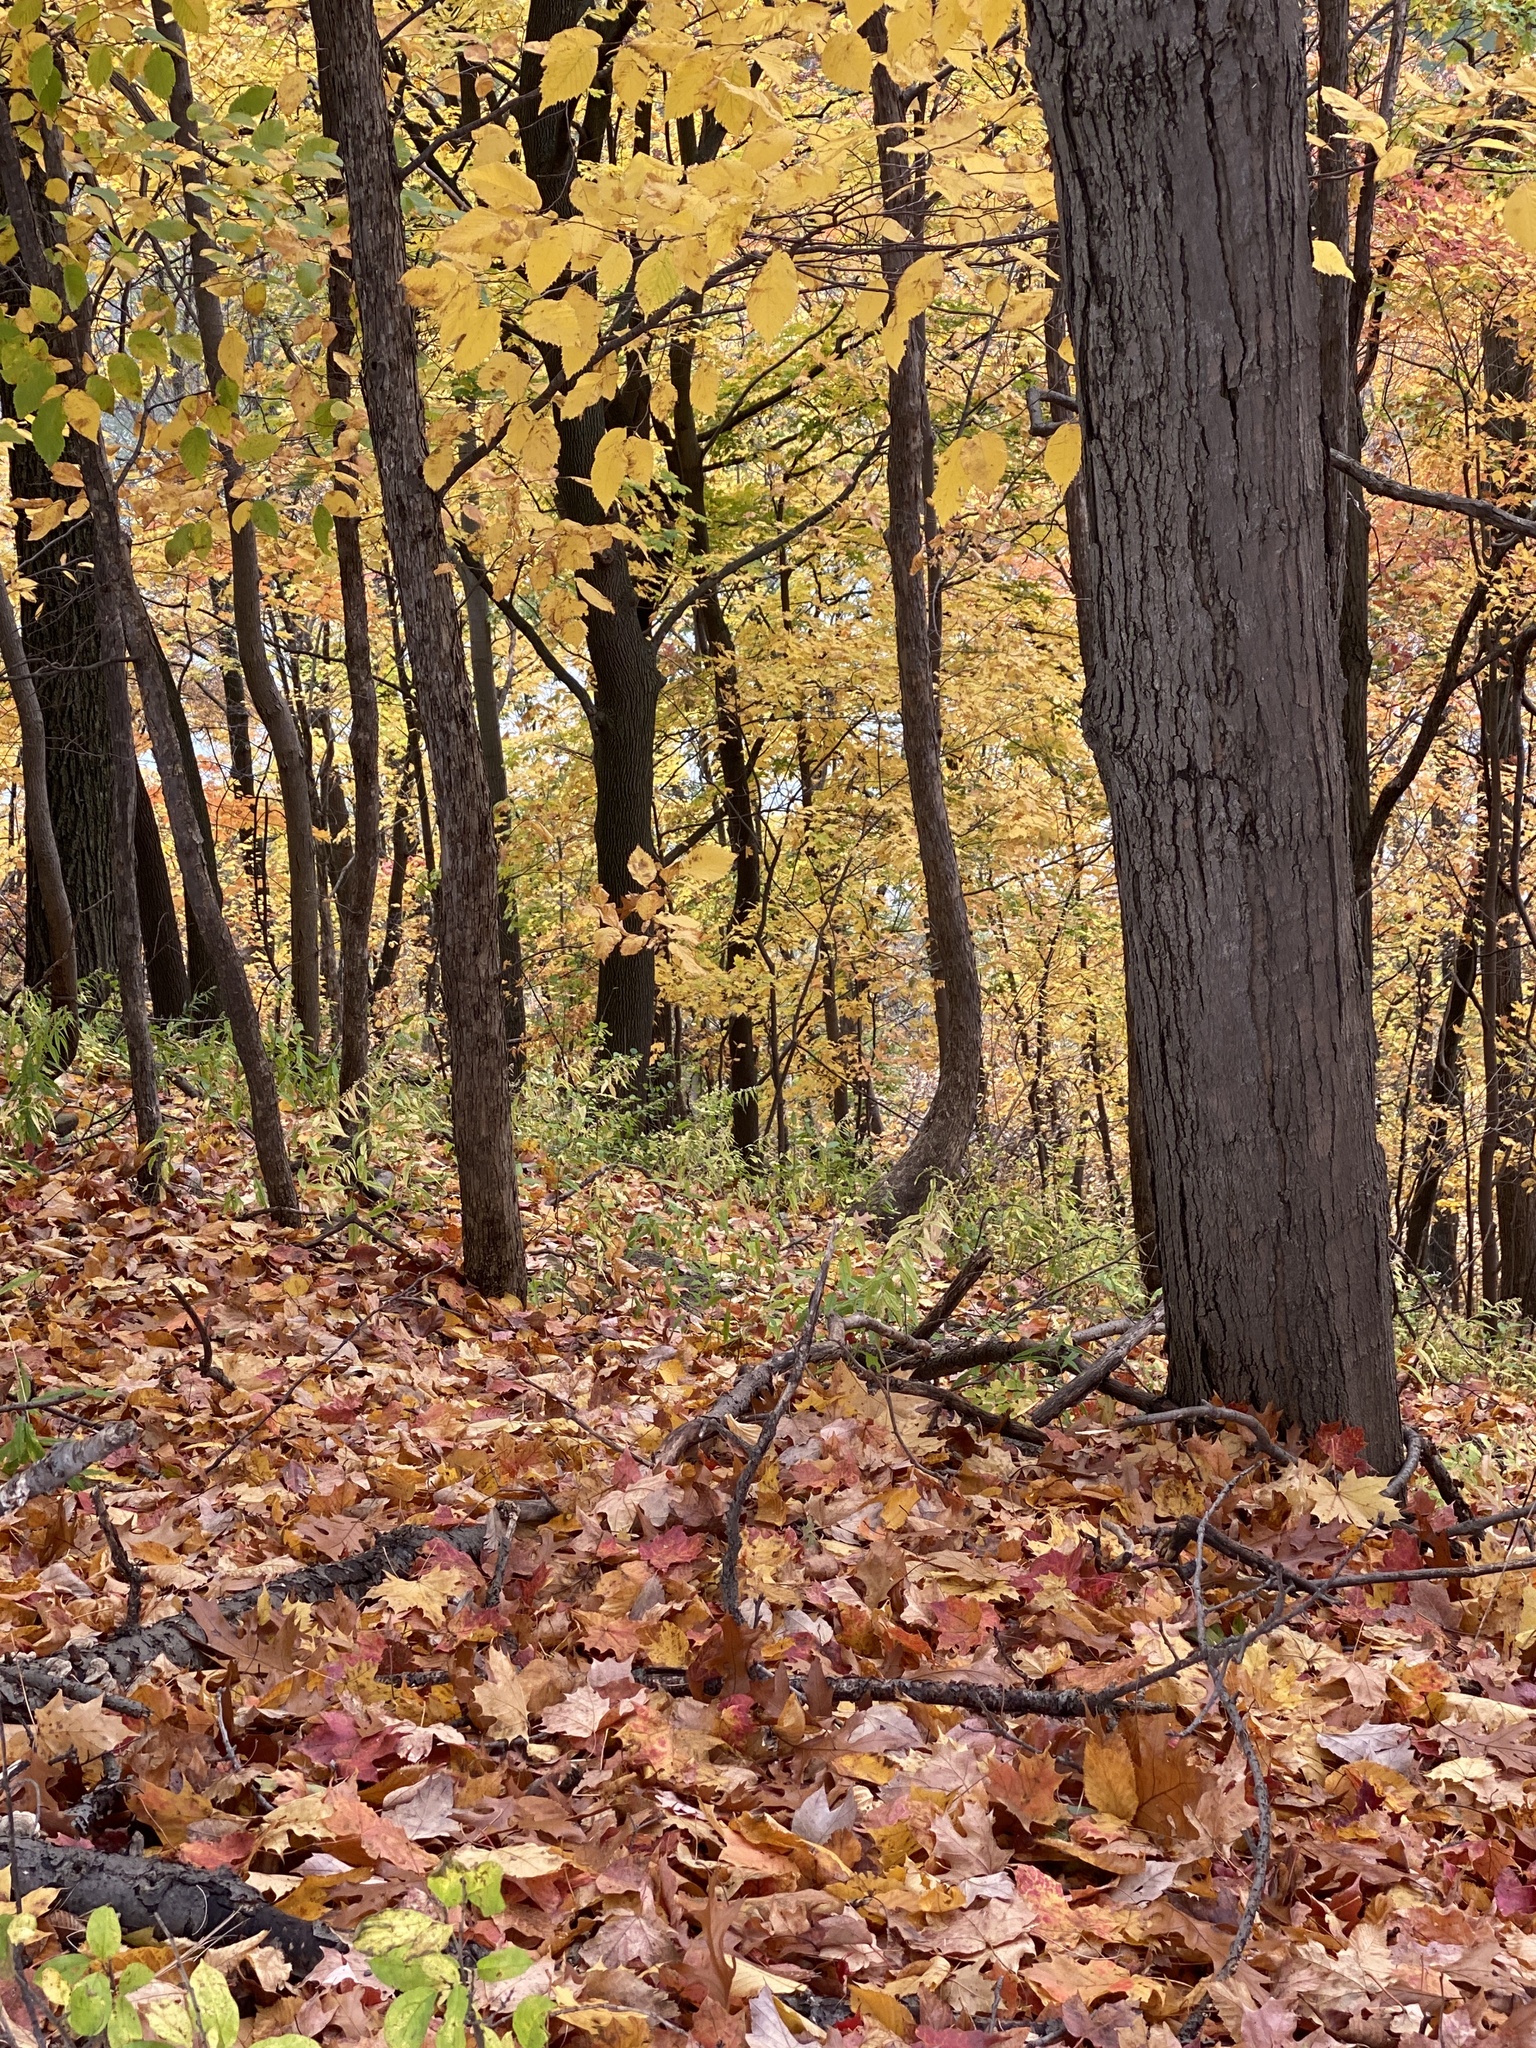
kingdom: Plantae
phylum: Tracheophyta
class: Magnoliopsida
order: Fagales
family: Fagaceae
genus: Quercus
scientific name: Quercus velutina
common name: Black oak
